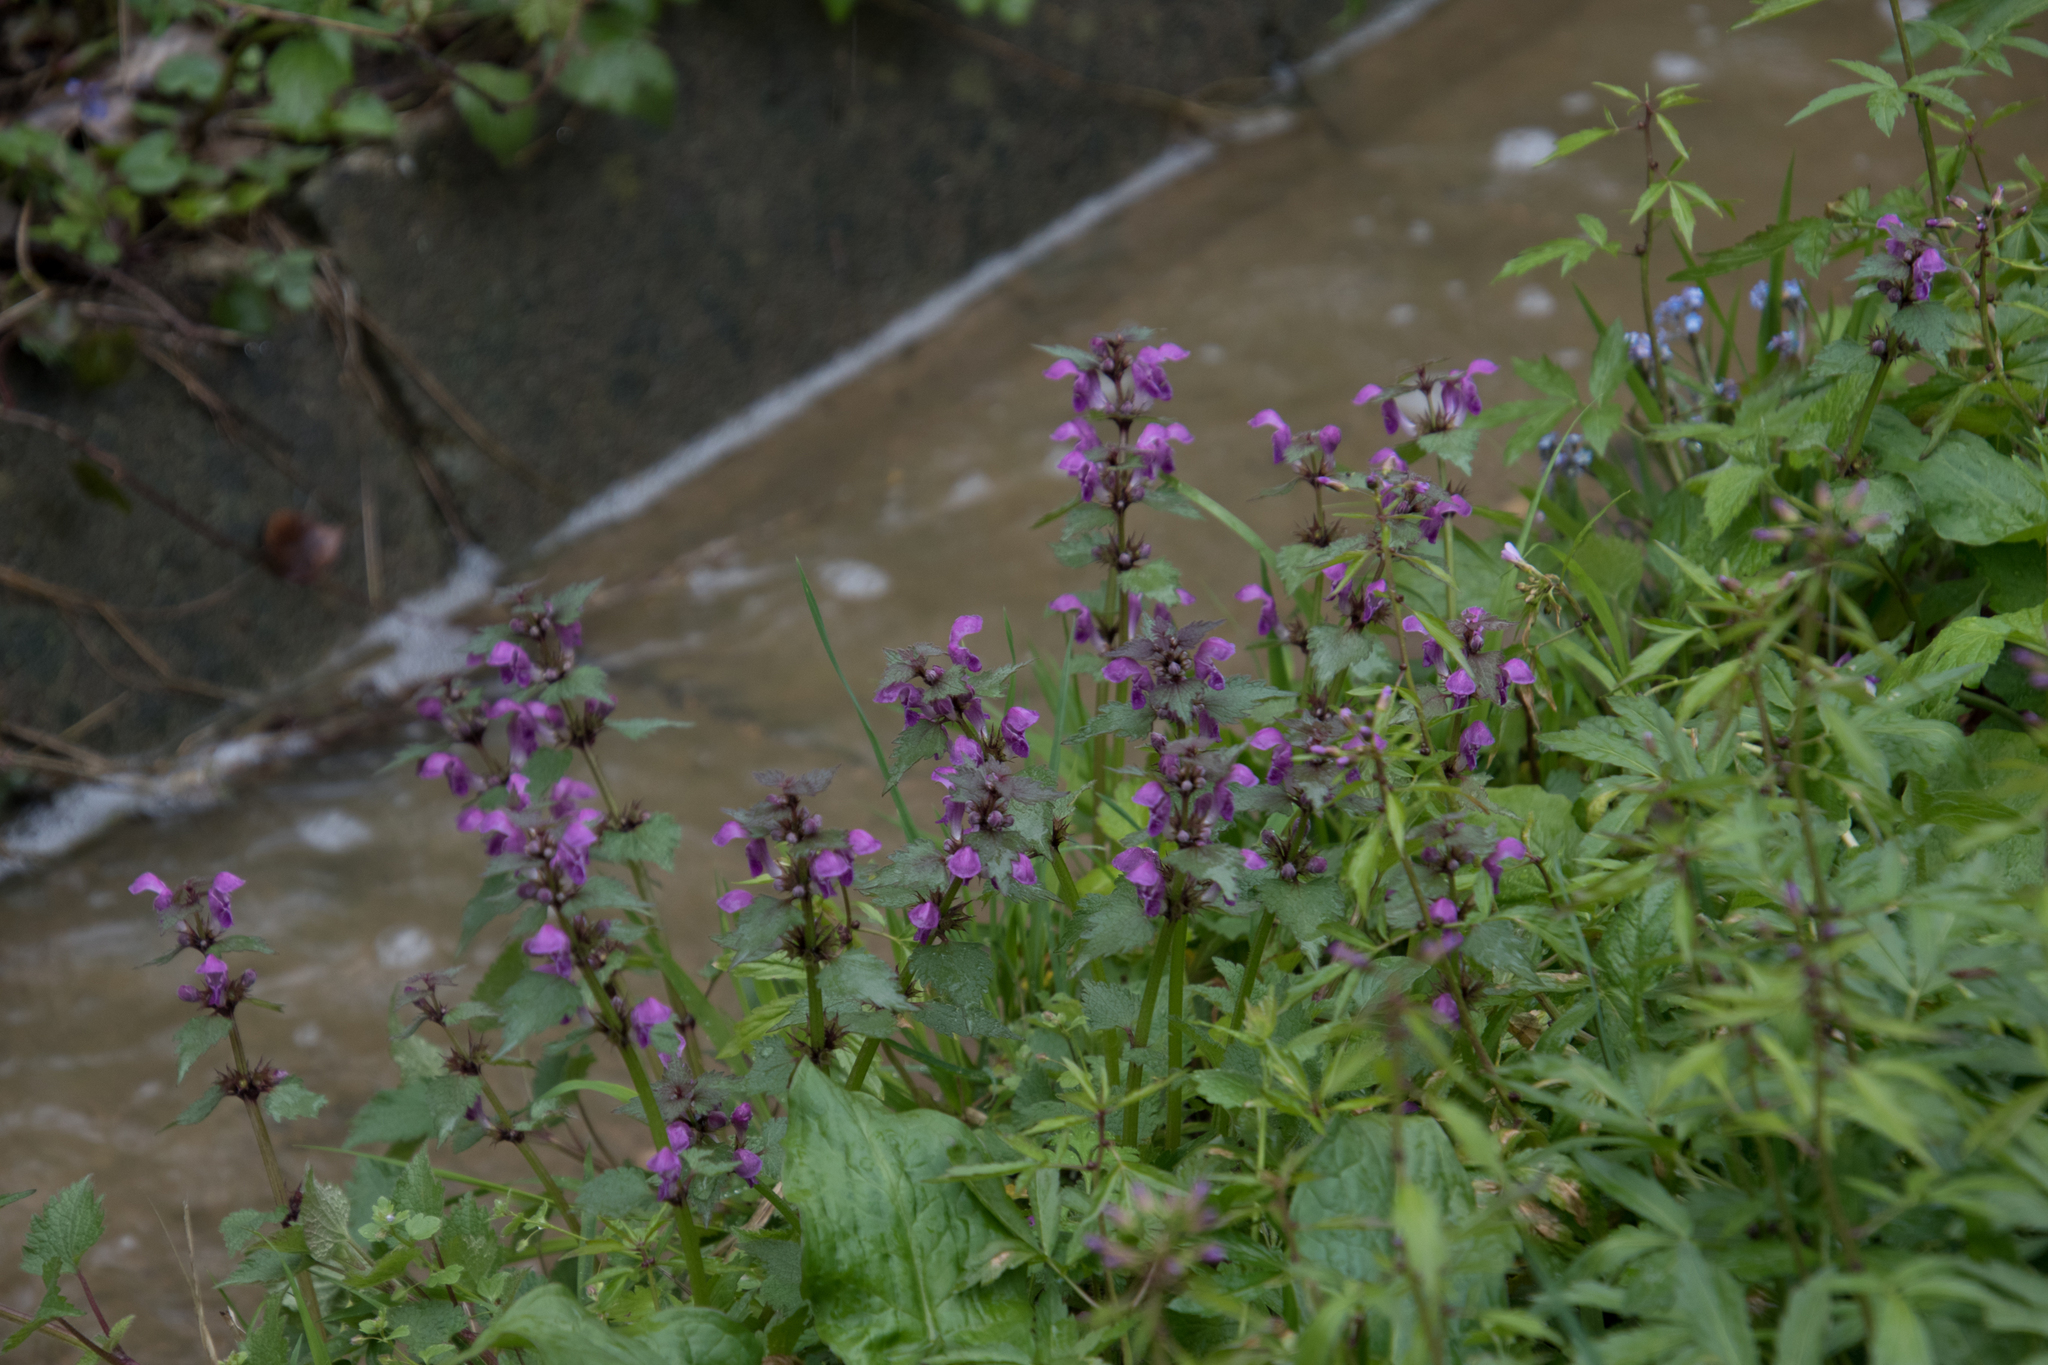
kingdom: Plantae
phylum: Tracheophyta
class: Magnoliopsida
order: Lamiales
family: Lamiaceae
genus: Lamium
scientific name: Lamium maculatum
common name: Spotted dead-nettle
